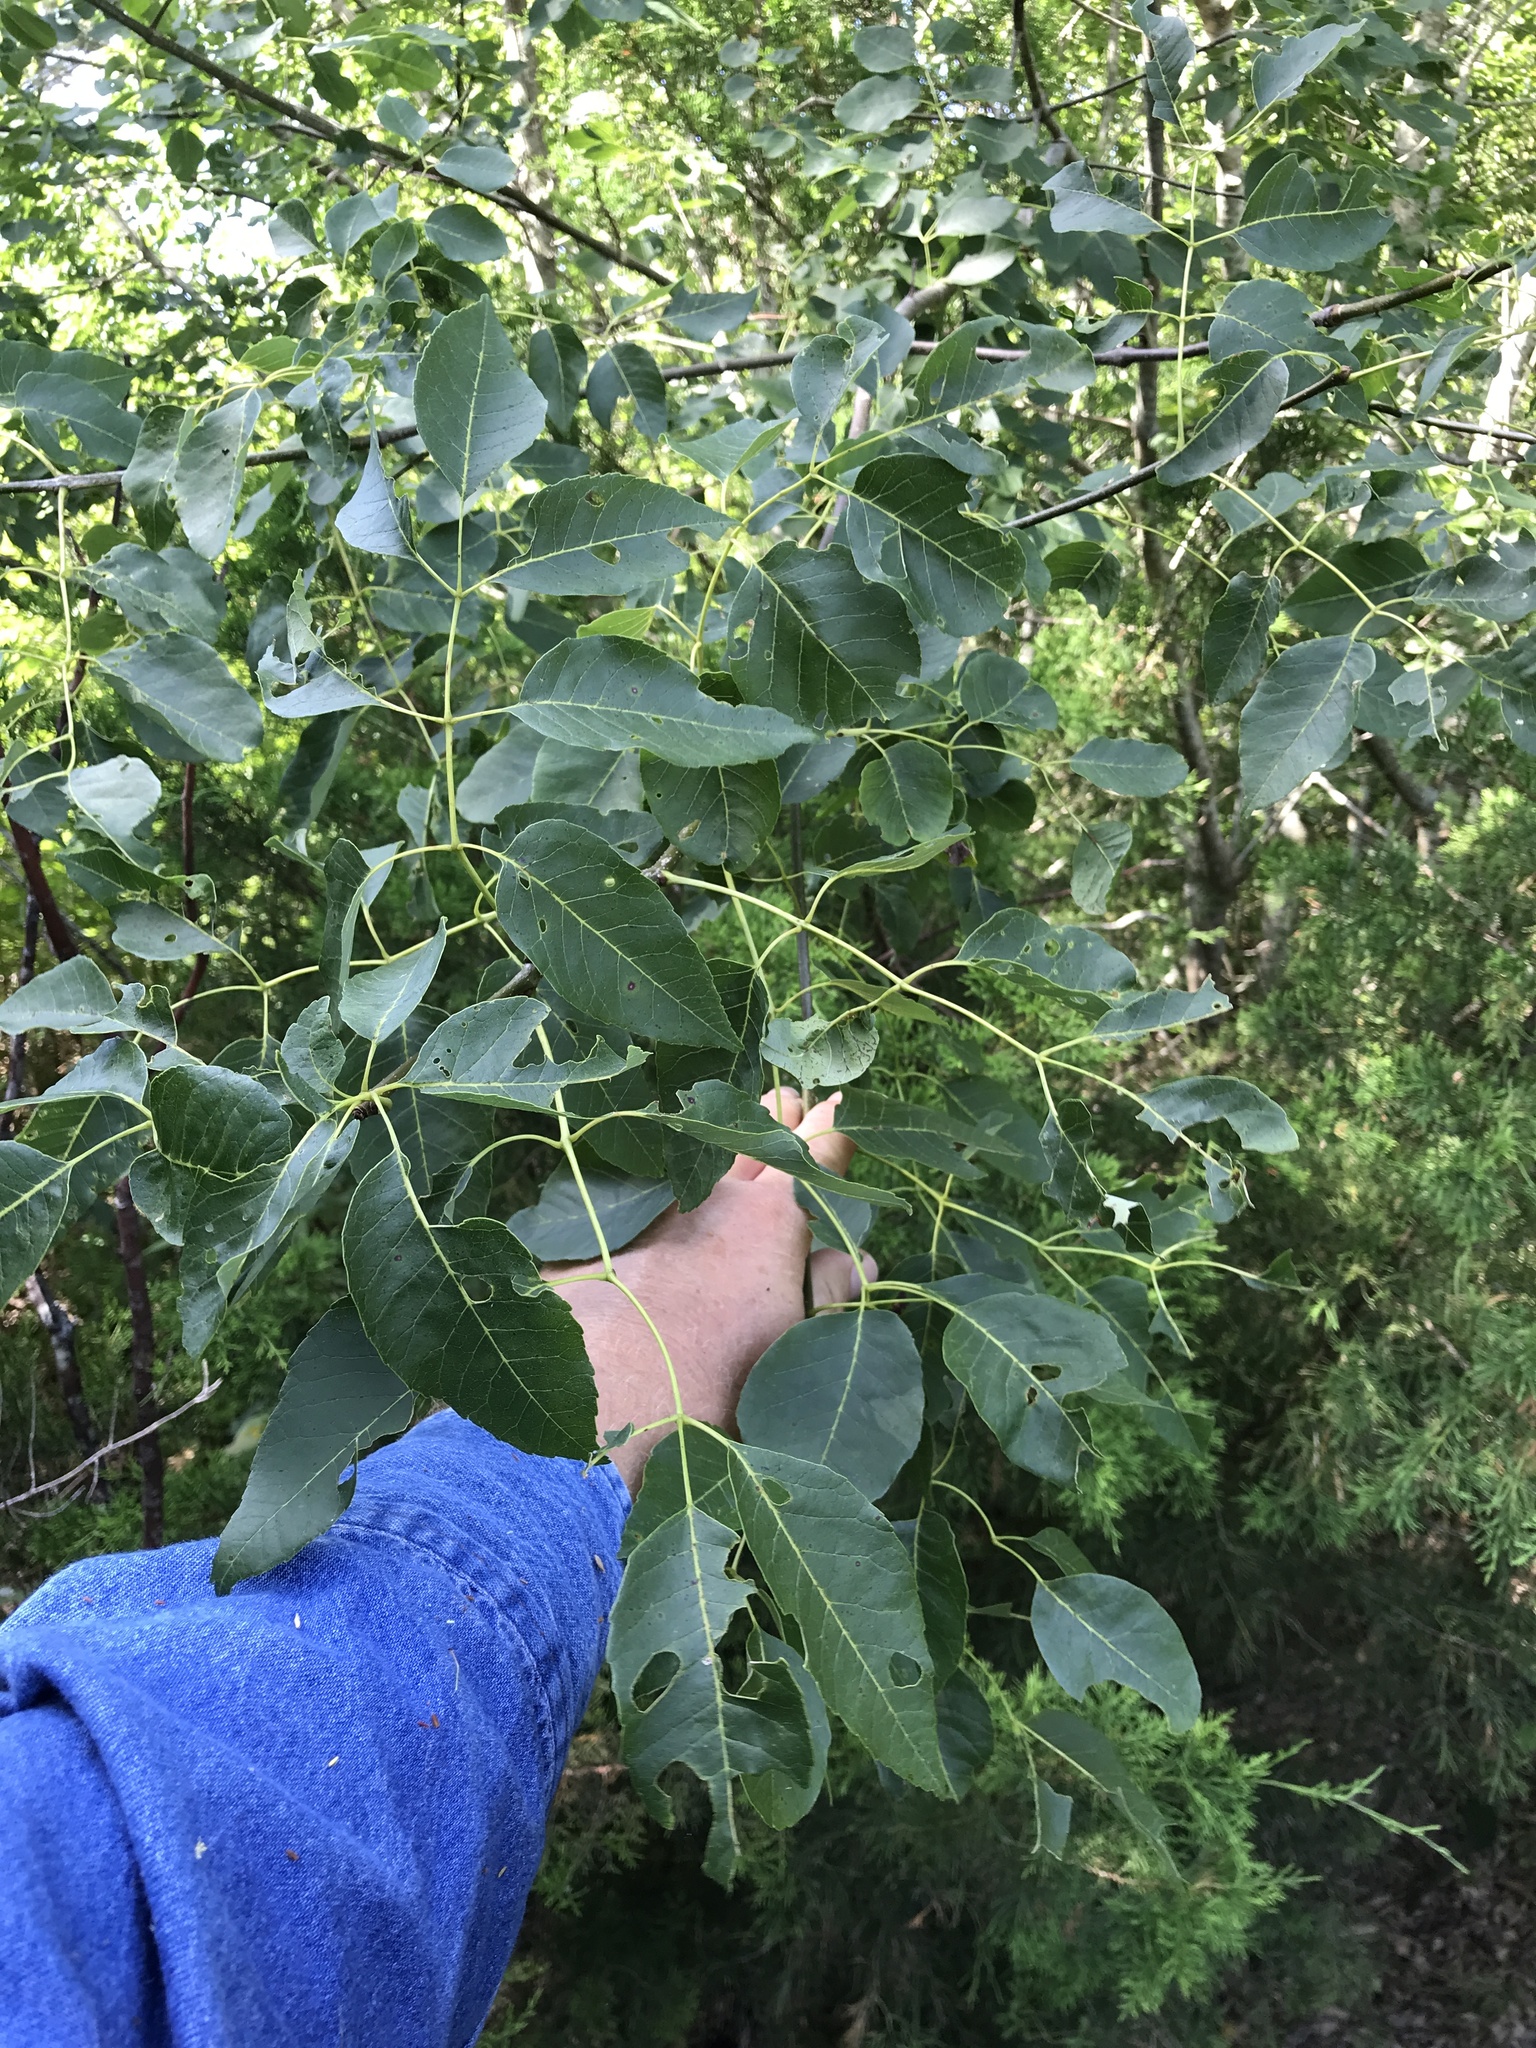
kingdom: Plantae
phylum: Tracheophyta
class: Magnoliopsida
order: Lamiales
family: Oleaceae
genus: Fraxinus
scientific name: Fraxinus albicans
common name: Texas ash
